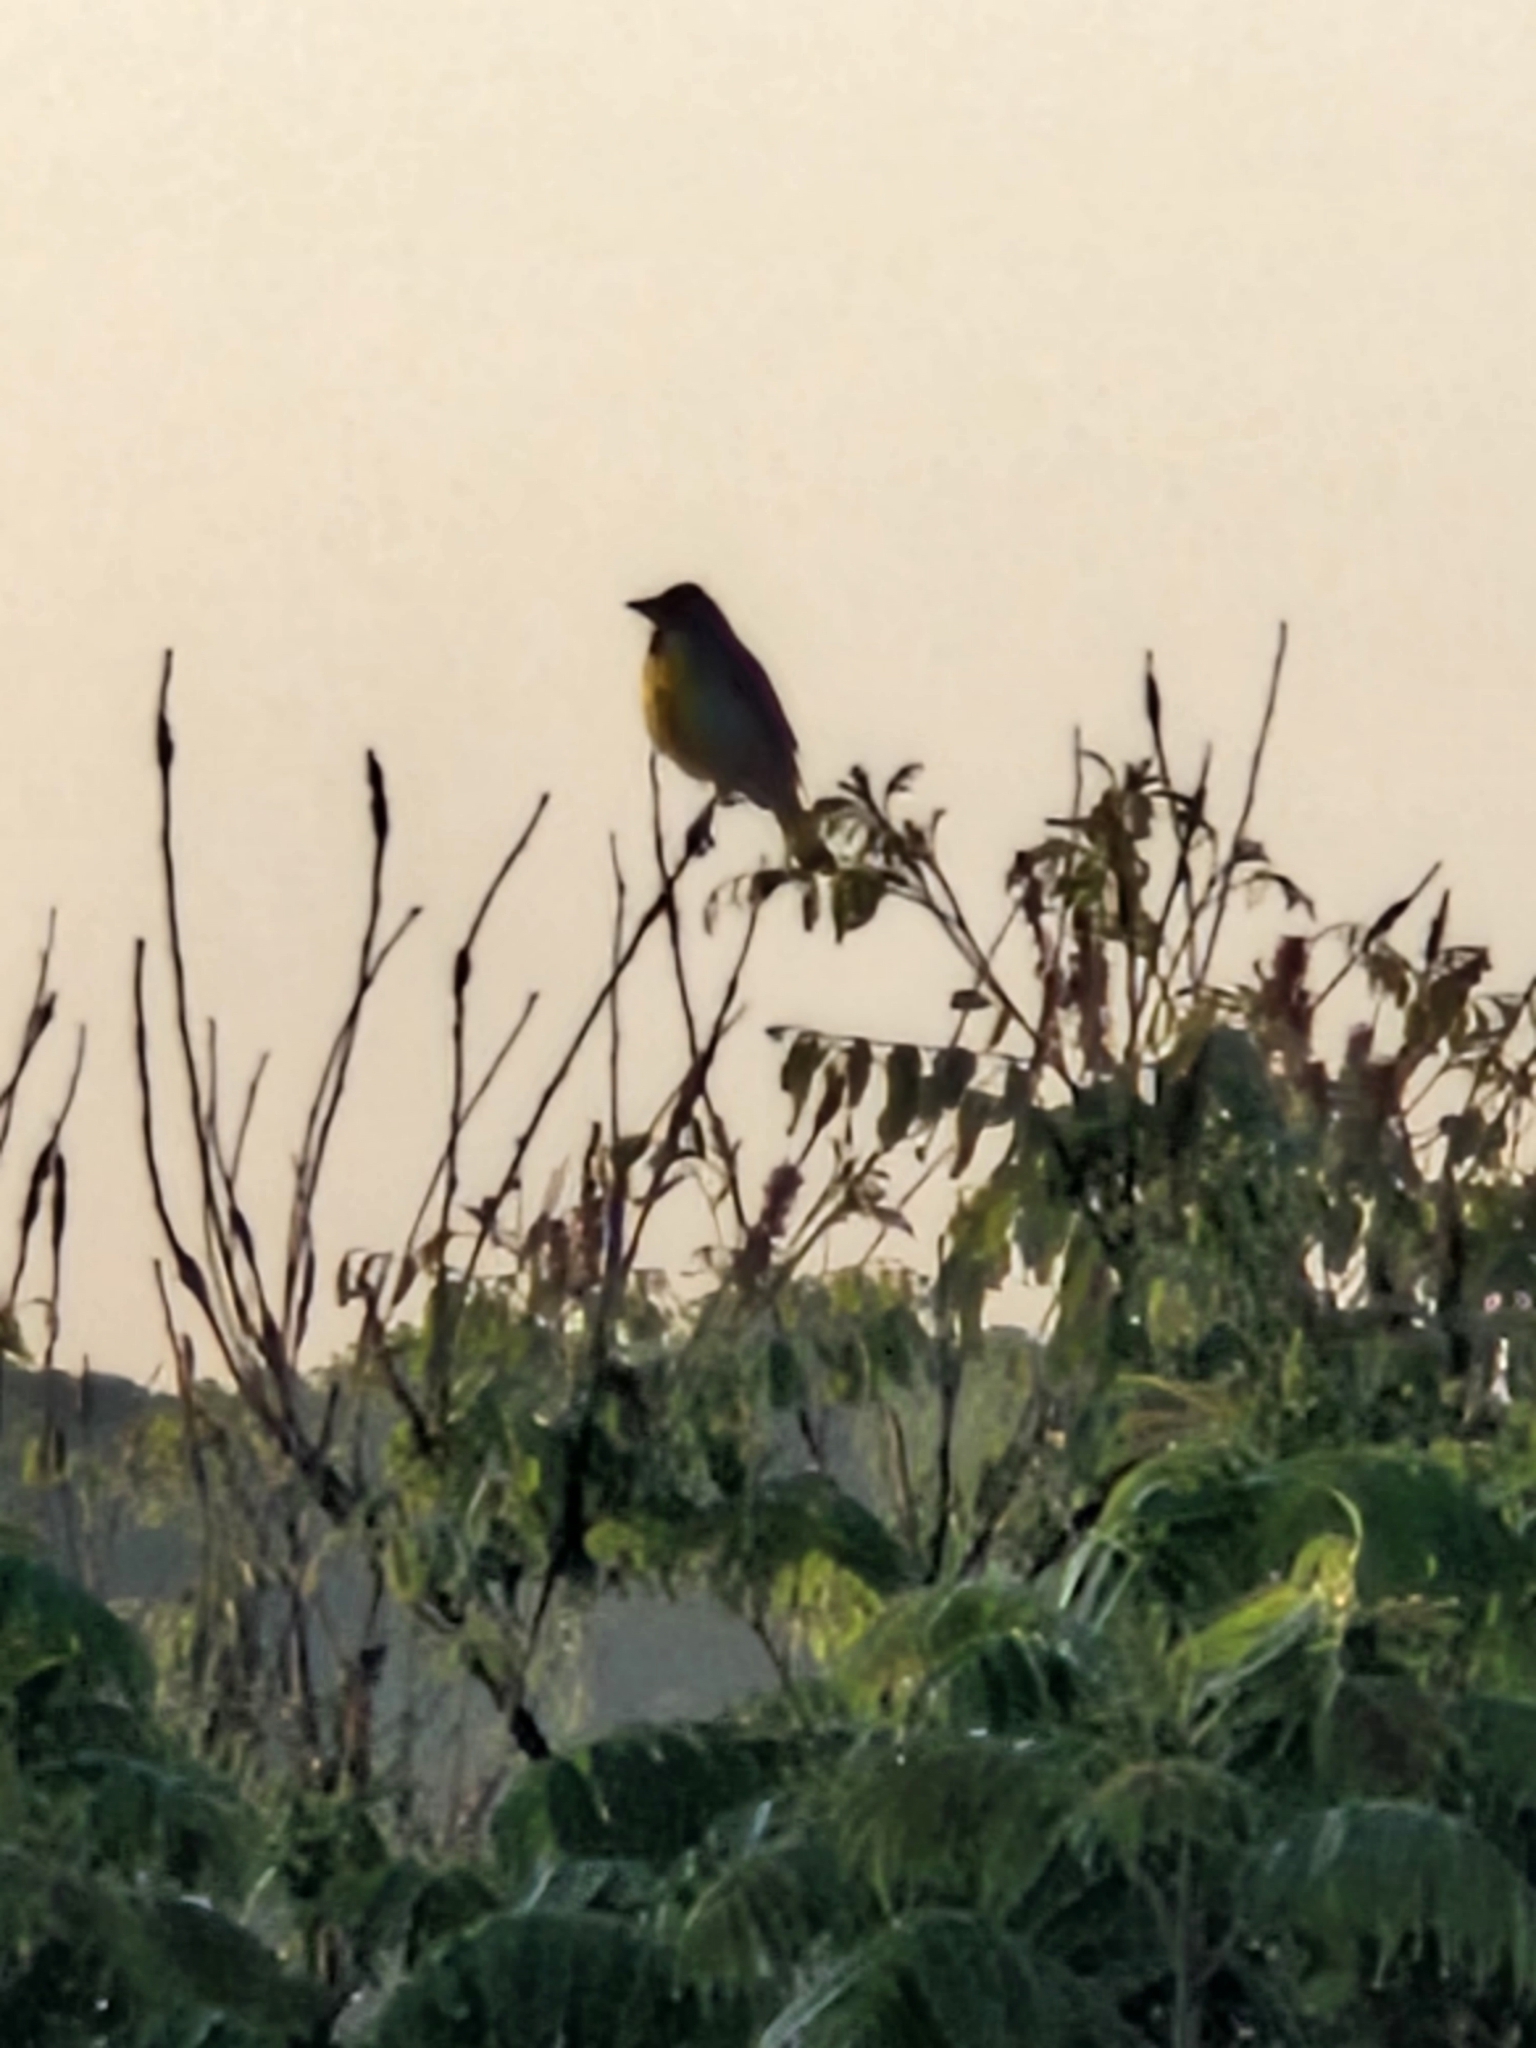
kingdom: Animalia
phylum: Chordata
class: Aves
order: Passeriformes
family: Cardinalidae
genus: Spiza
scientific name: Spiza americana
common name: Dickcissel
